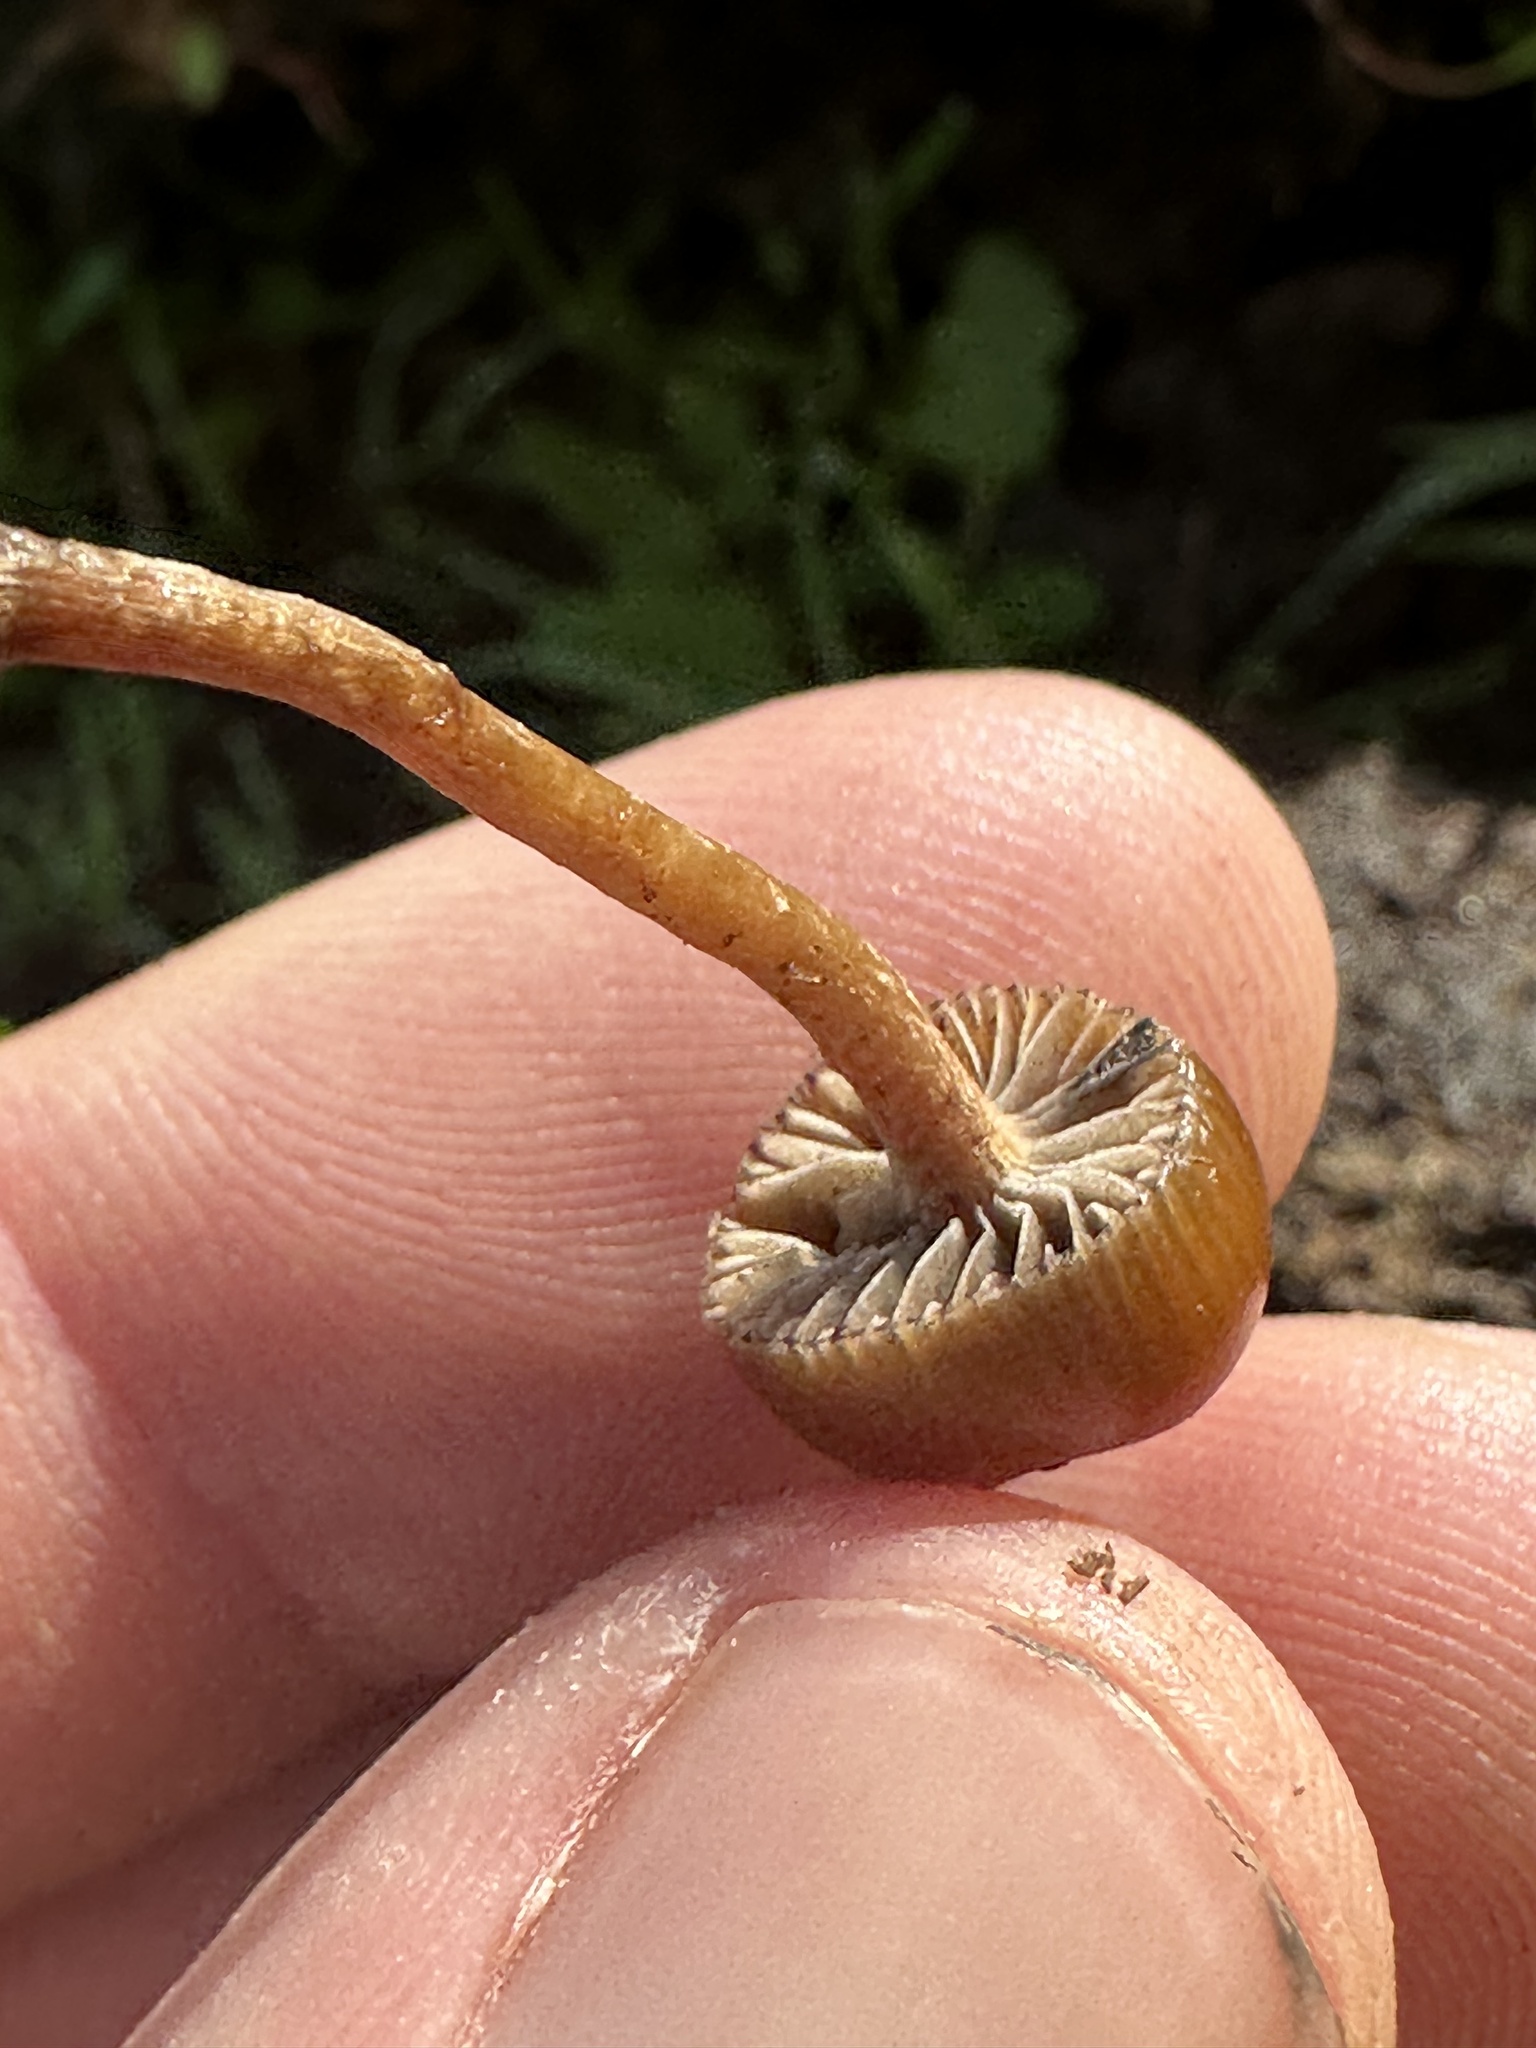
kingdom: Fungi
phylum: Basidiomycota
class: Agaricomycetes
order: Agaricales
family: Strophariaceae
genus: Deconica
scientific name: Deconica coprophila
